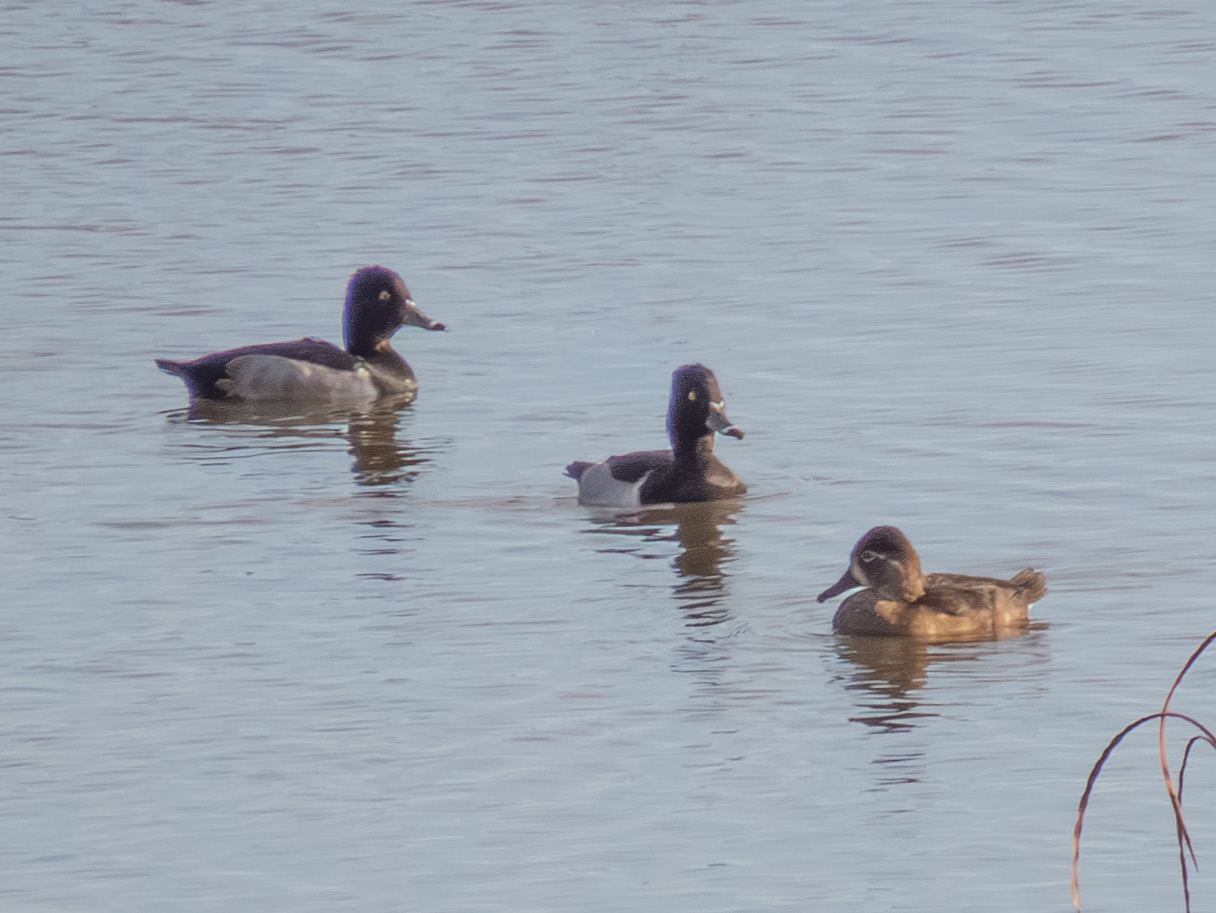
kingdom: Animalia
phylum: Chordata
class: Aves
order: Anseriformes
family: Anatidae
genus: Aythya
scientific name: Aythya collaris
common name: Ring-necked duck
